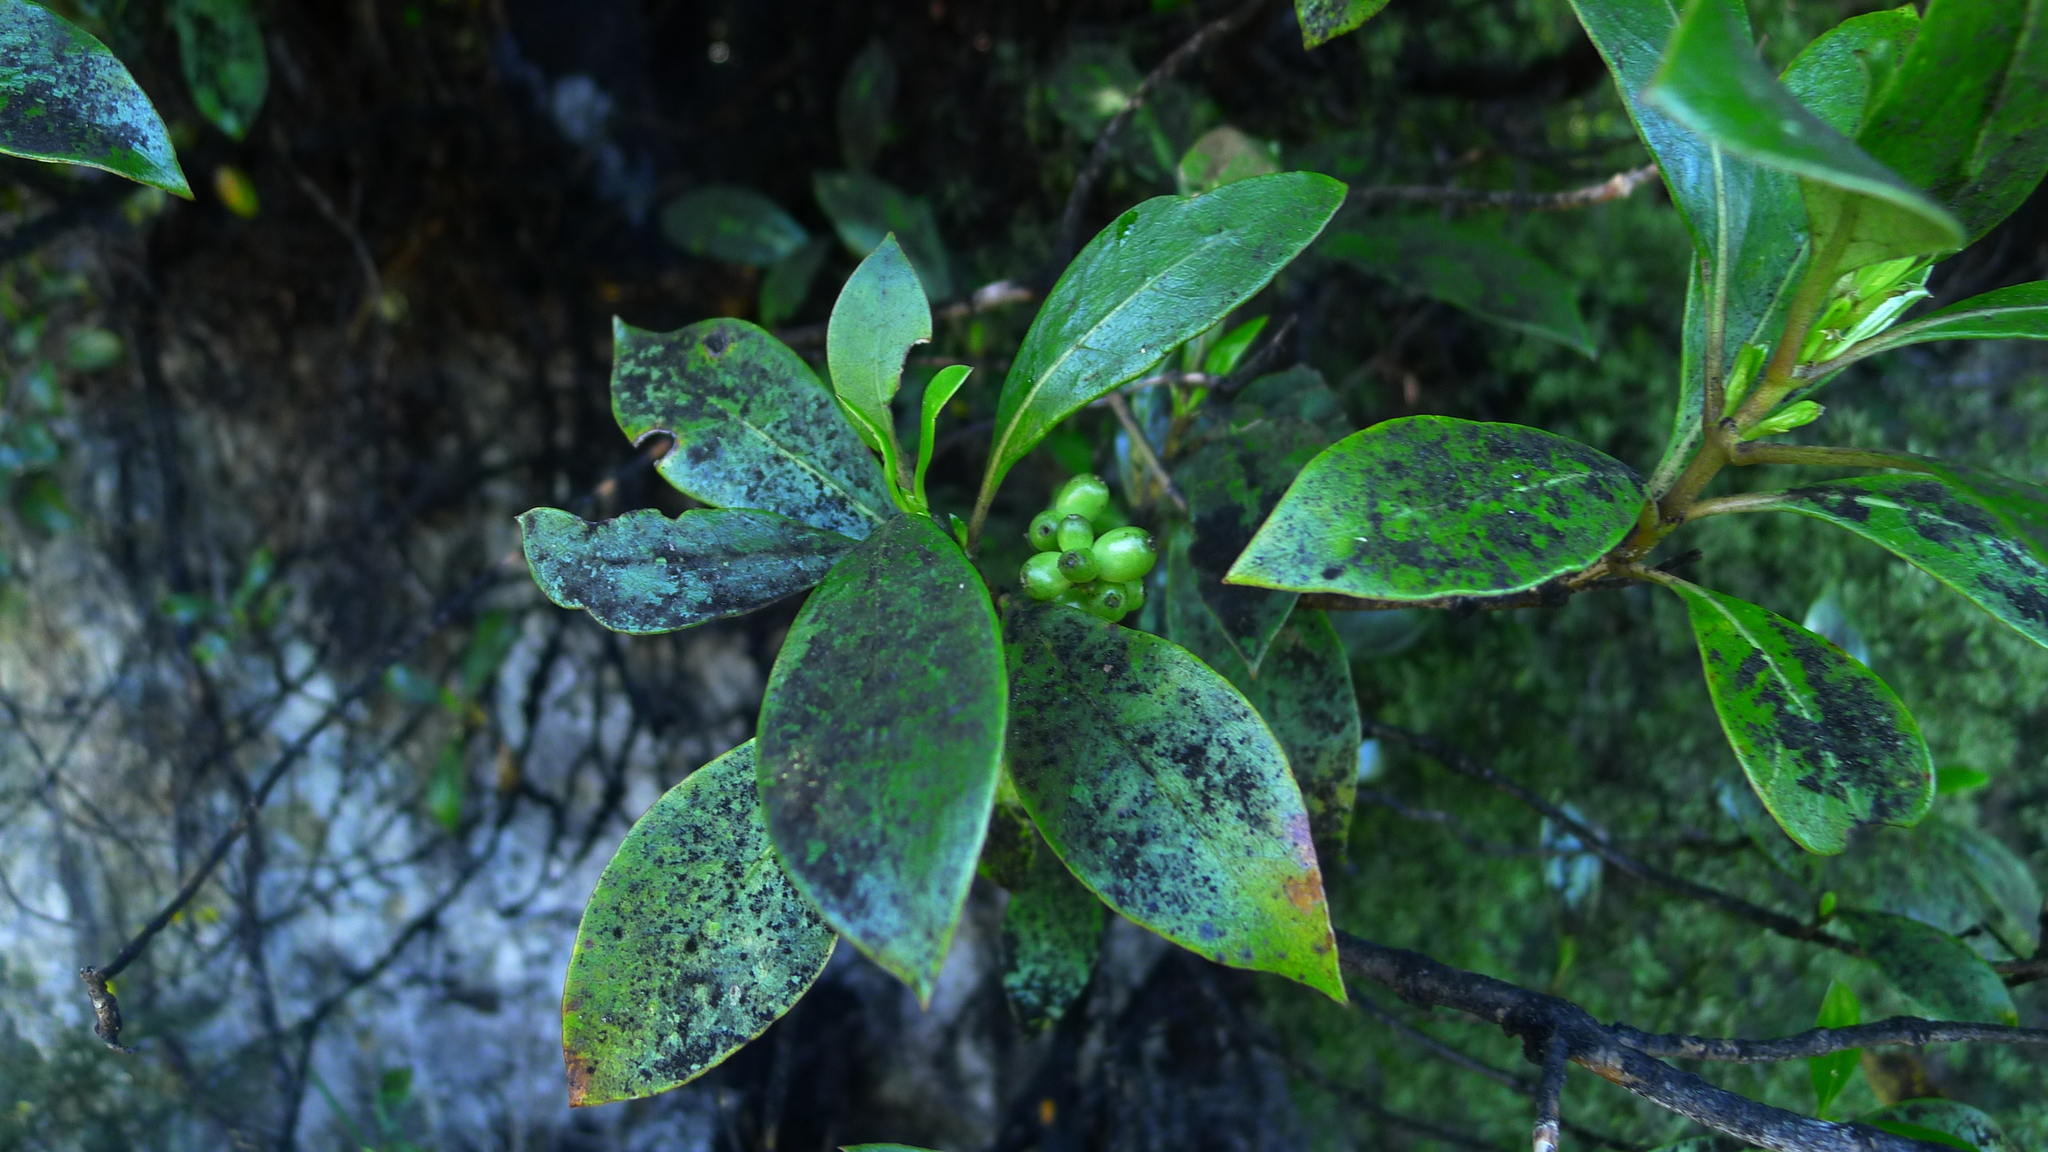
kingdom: Plantae
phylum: Tracheophyta
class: Magnoliopsida
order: Gentianales
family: Rubiaceae
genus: Coprosma
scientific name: Coprosma lucida
